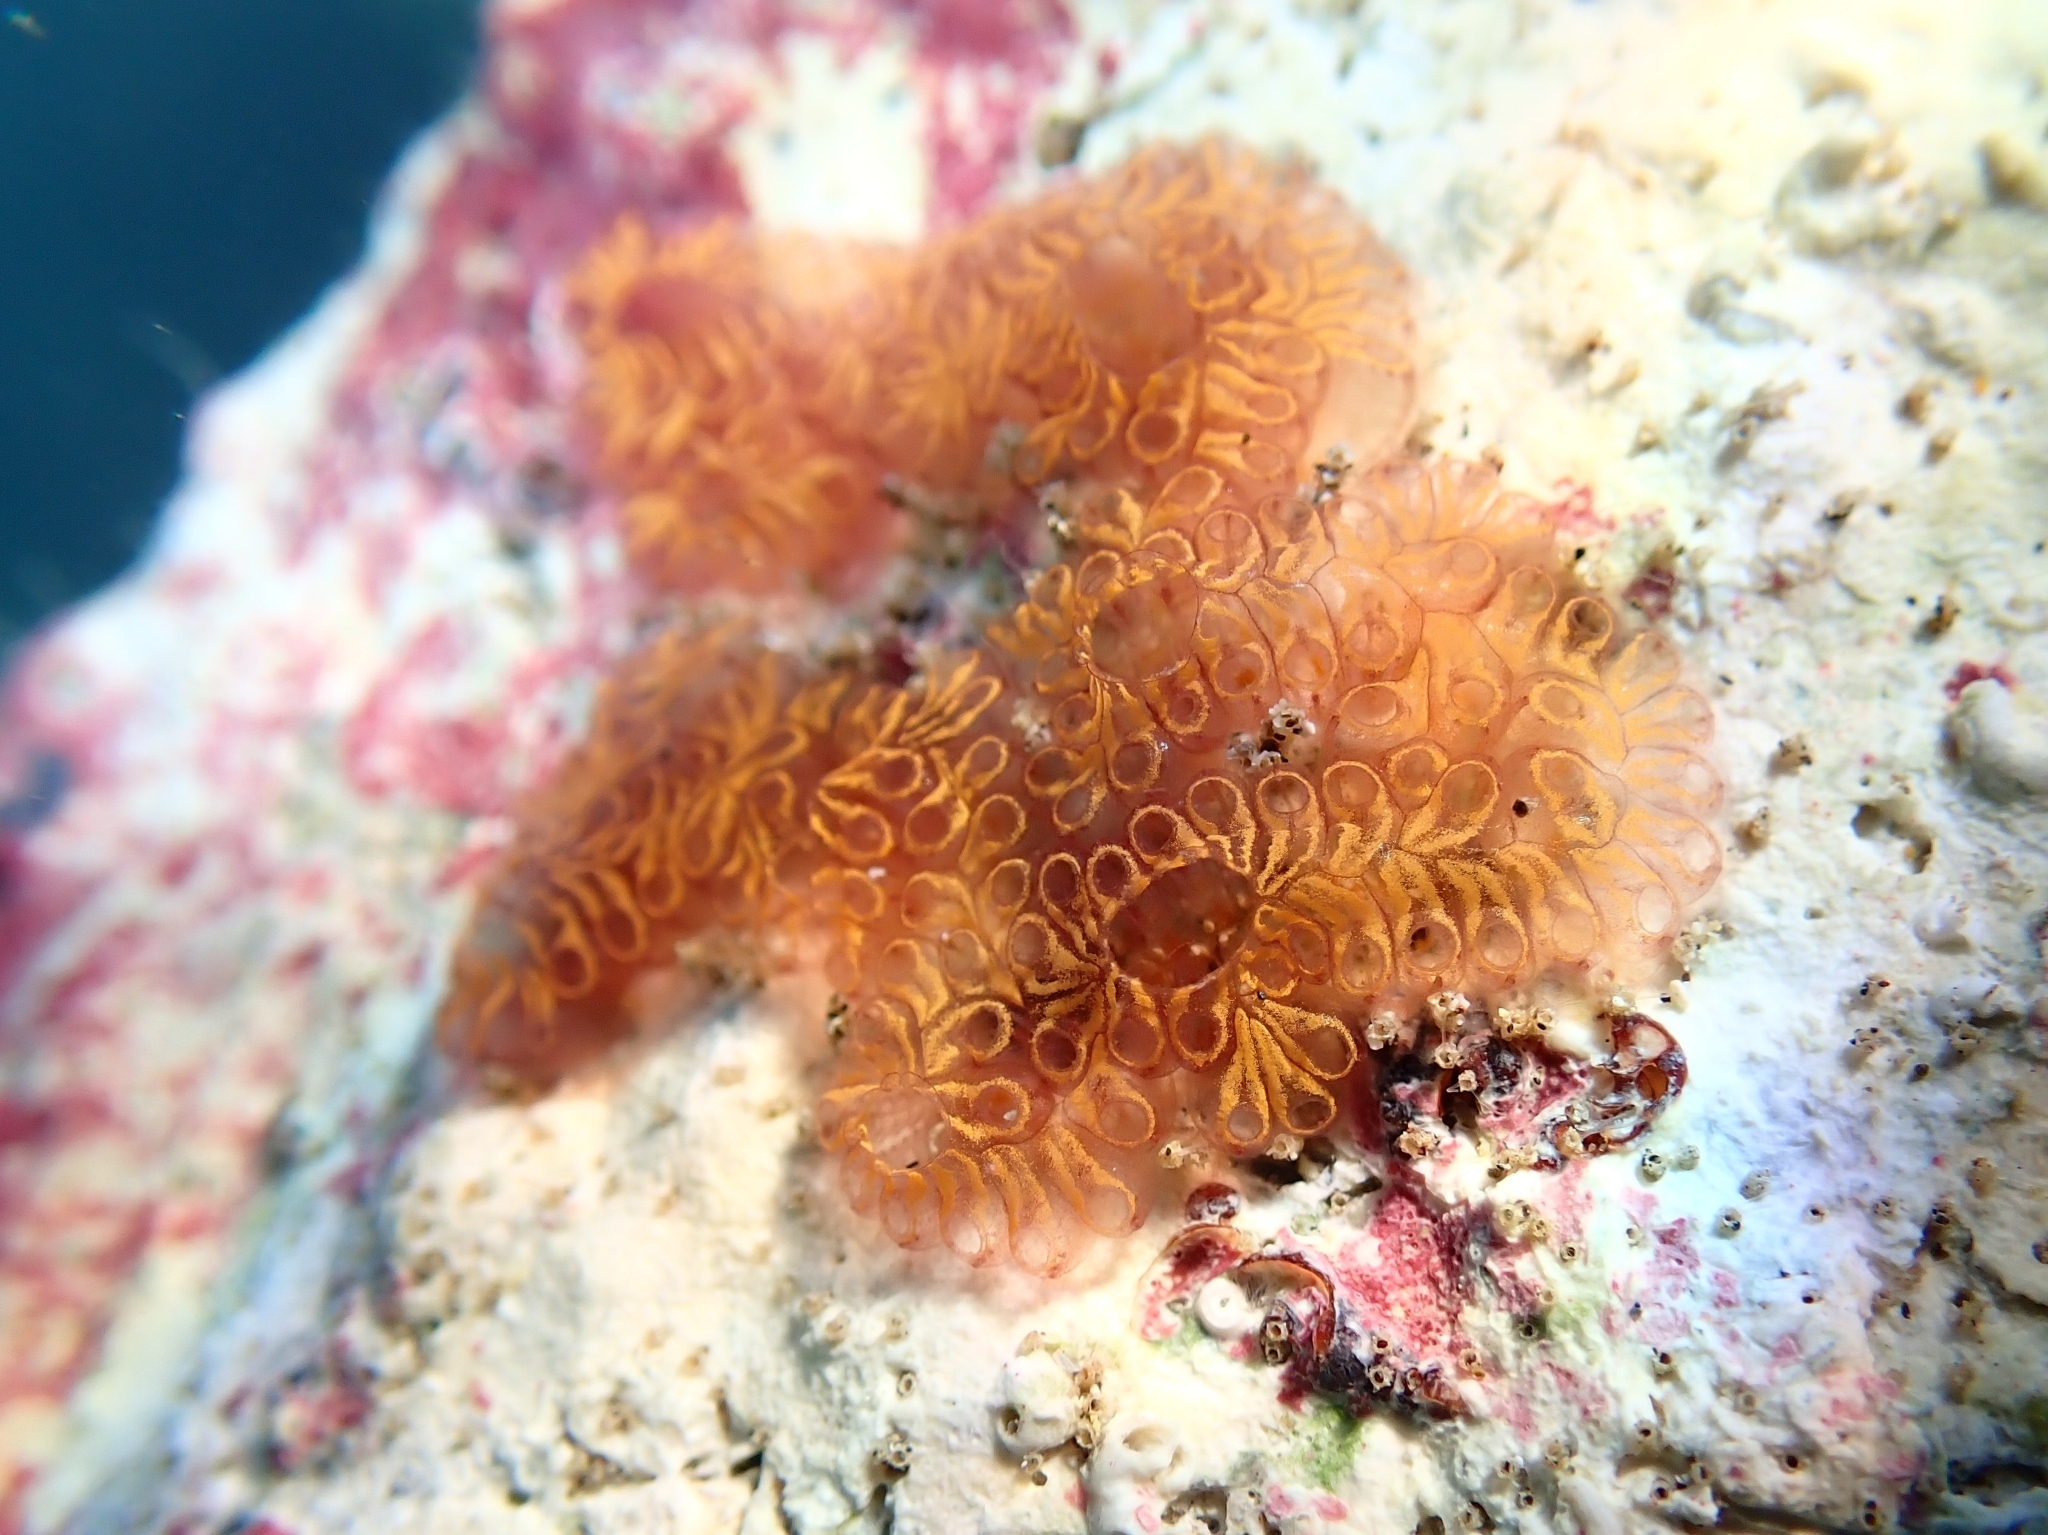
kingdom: Animalia
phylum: Chordata
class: Ascidiacea
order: Stolidobranchia
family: Styelidae
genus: Botrylloides
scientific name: Botrylloides niger
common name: Black synascidia
